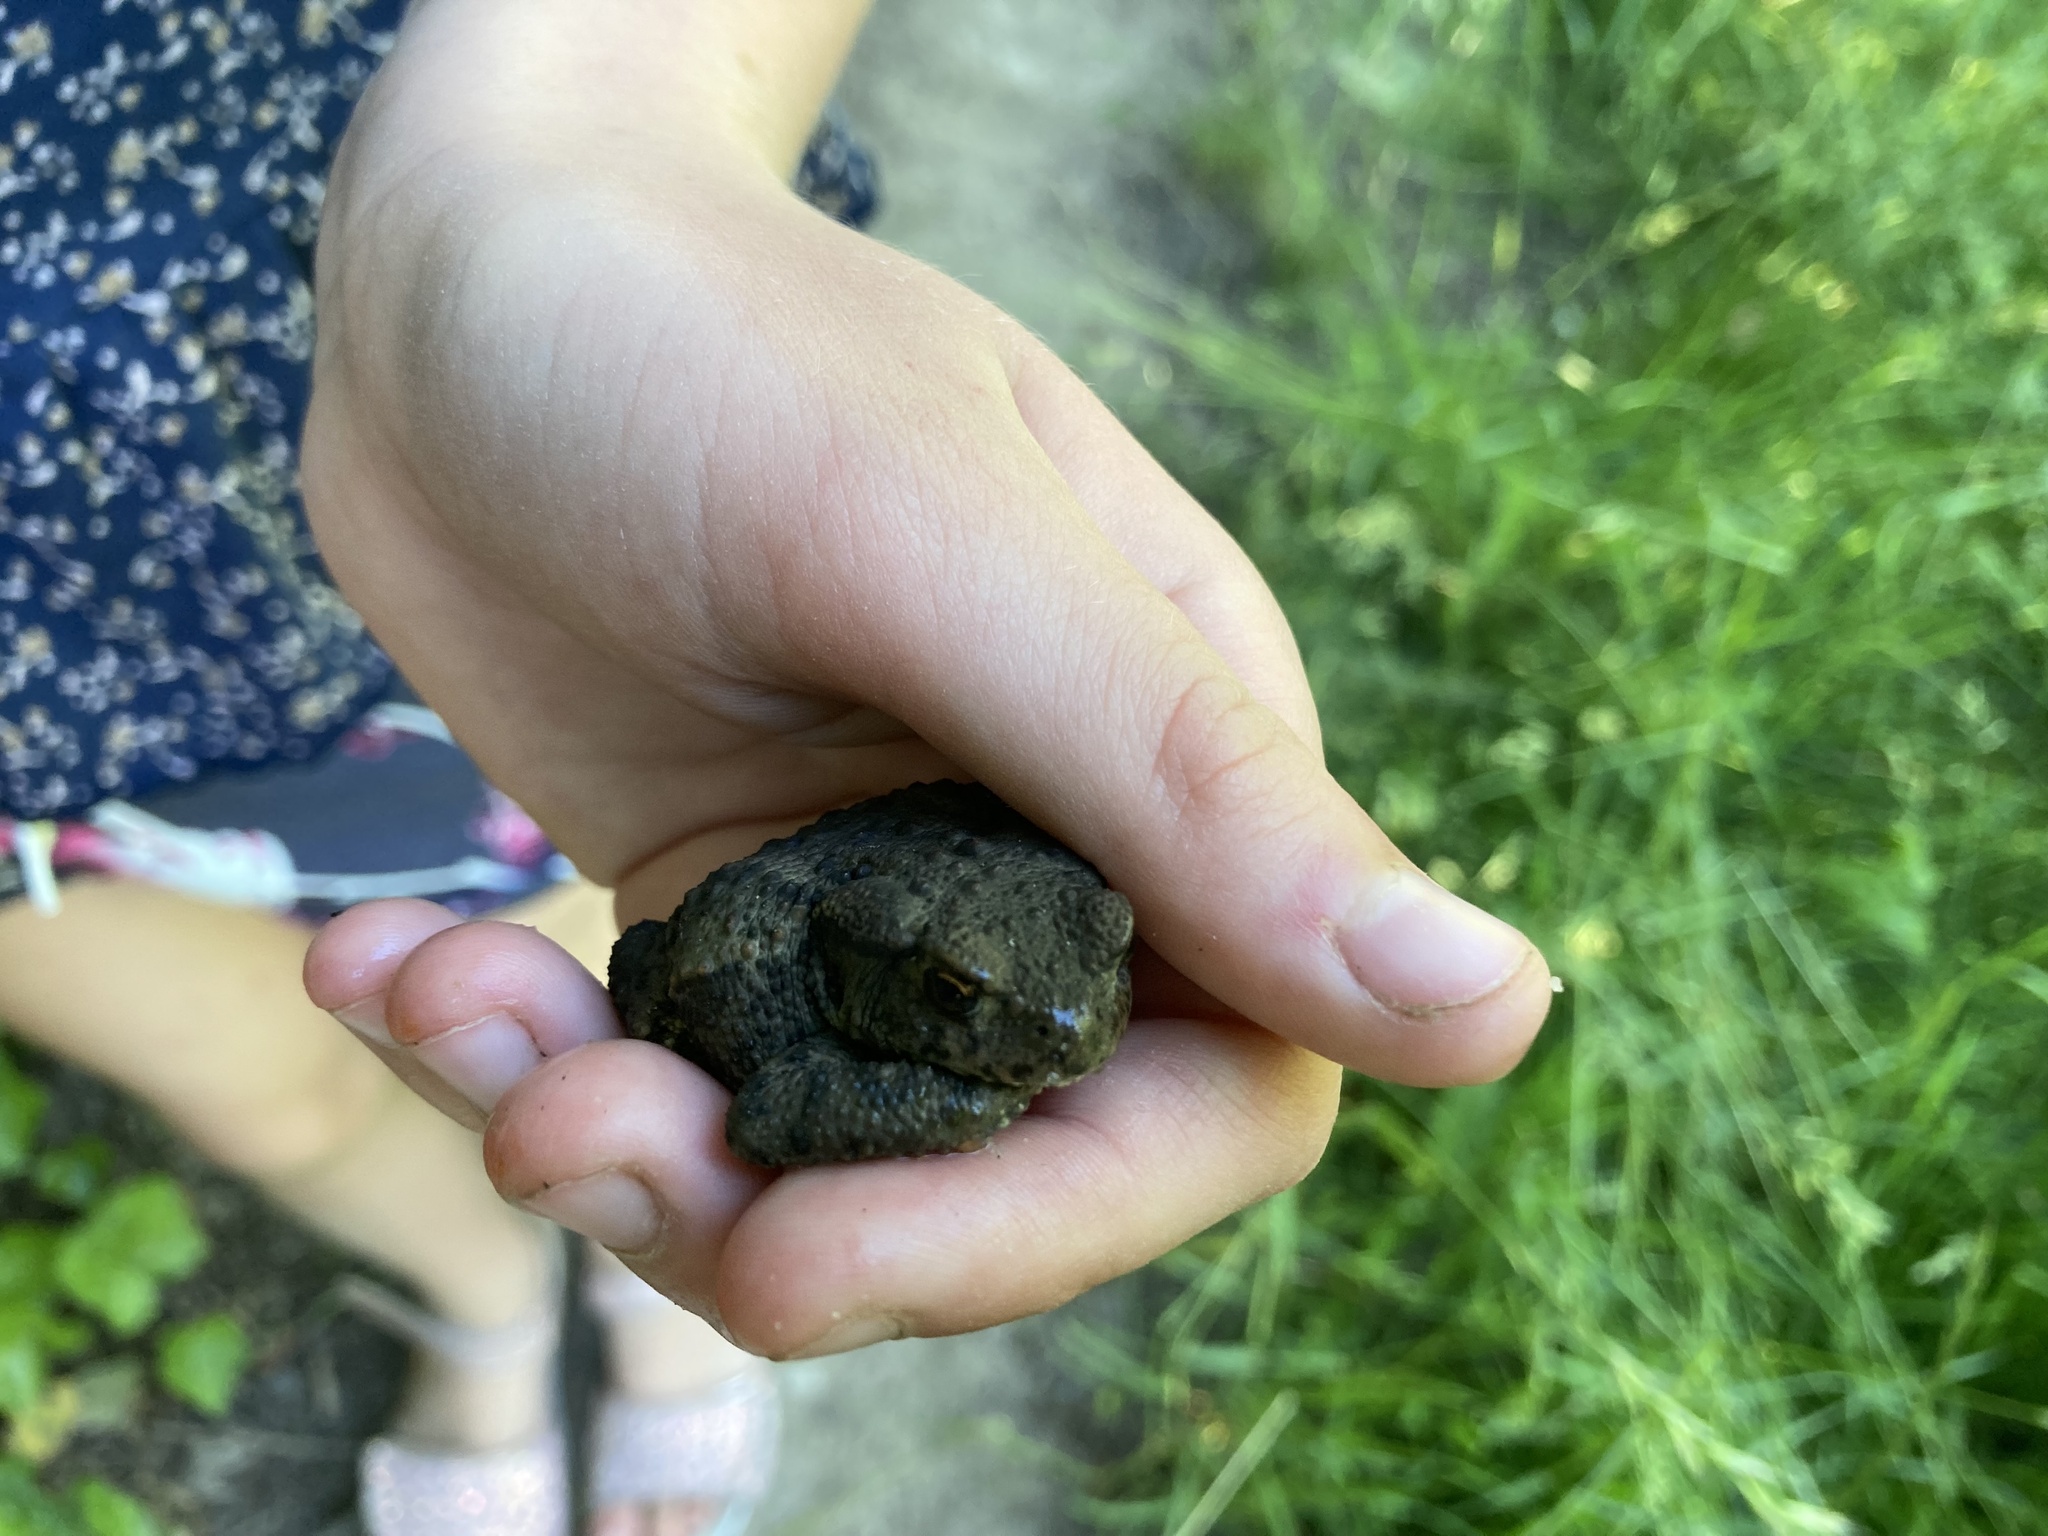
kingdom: Animalia
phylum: Chordata
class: Amphibia
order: Anura
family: Bufonidae
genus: Bufo
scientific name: Bufo bufo
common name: Common toad
